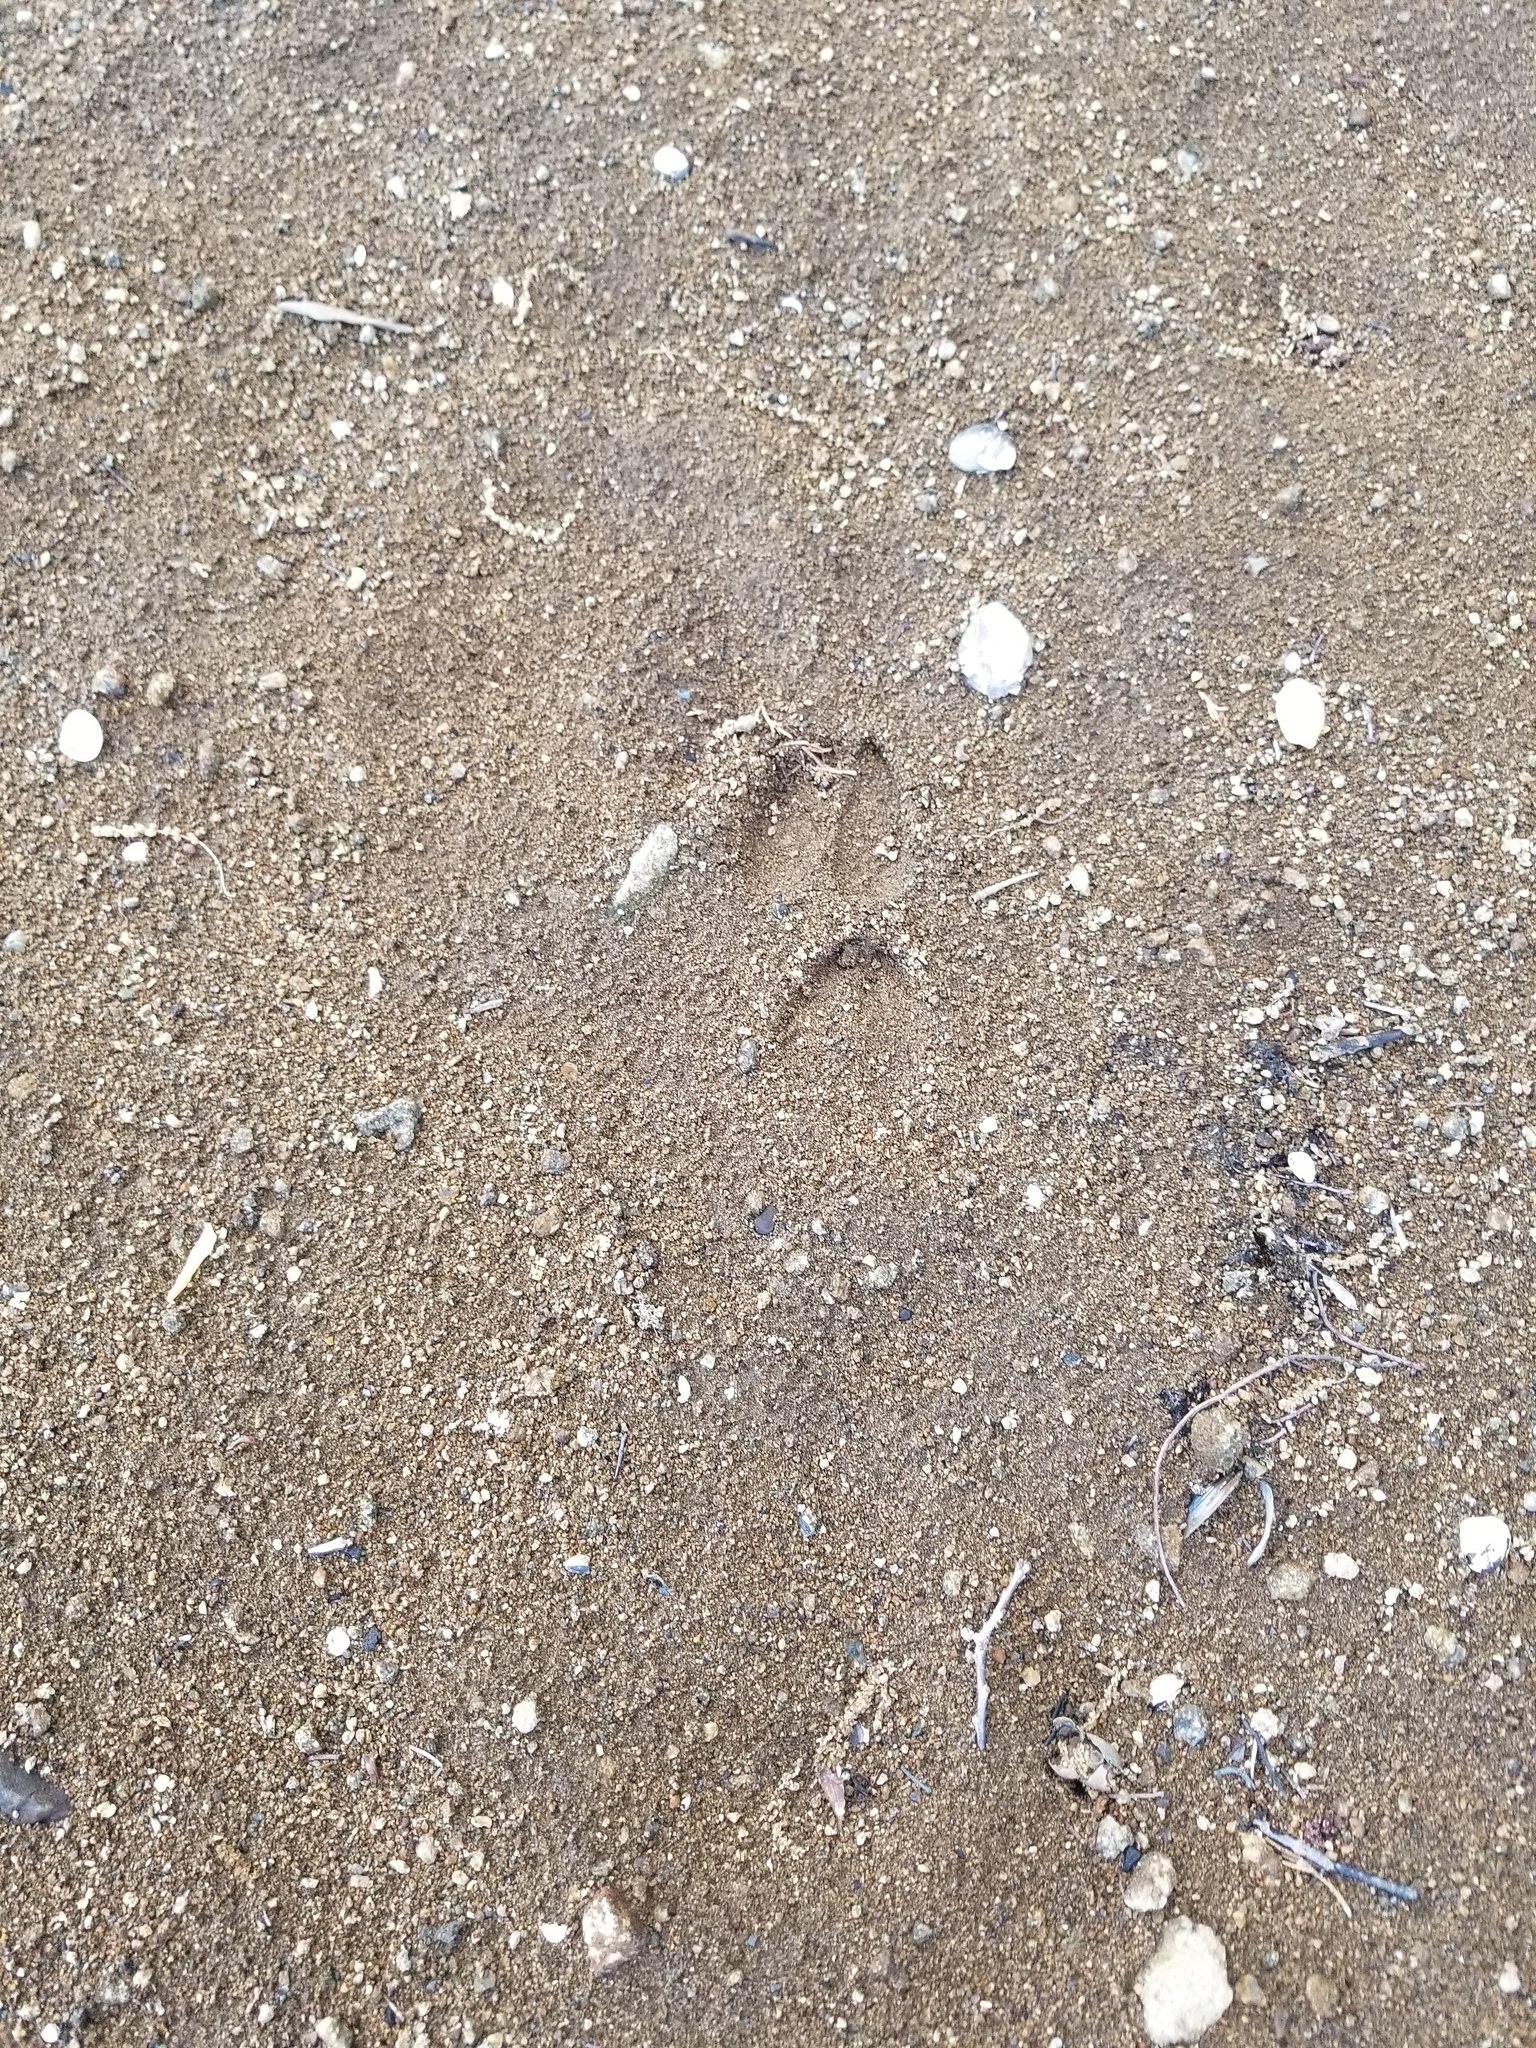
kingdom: Animalia
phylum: Chordata
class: Mammalia
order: Artiodactyla
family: Cervidae
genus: Odocoileus
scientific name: Odocoileus virginianus
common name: White-tailed deer
